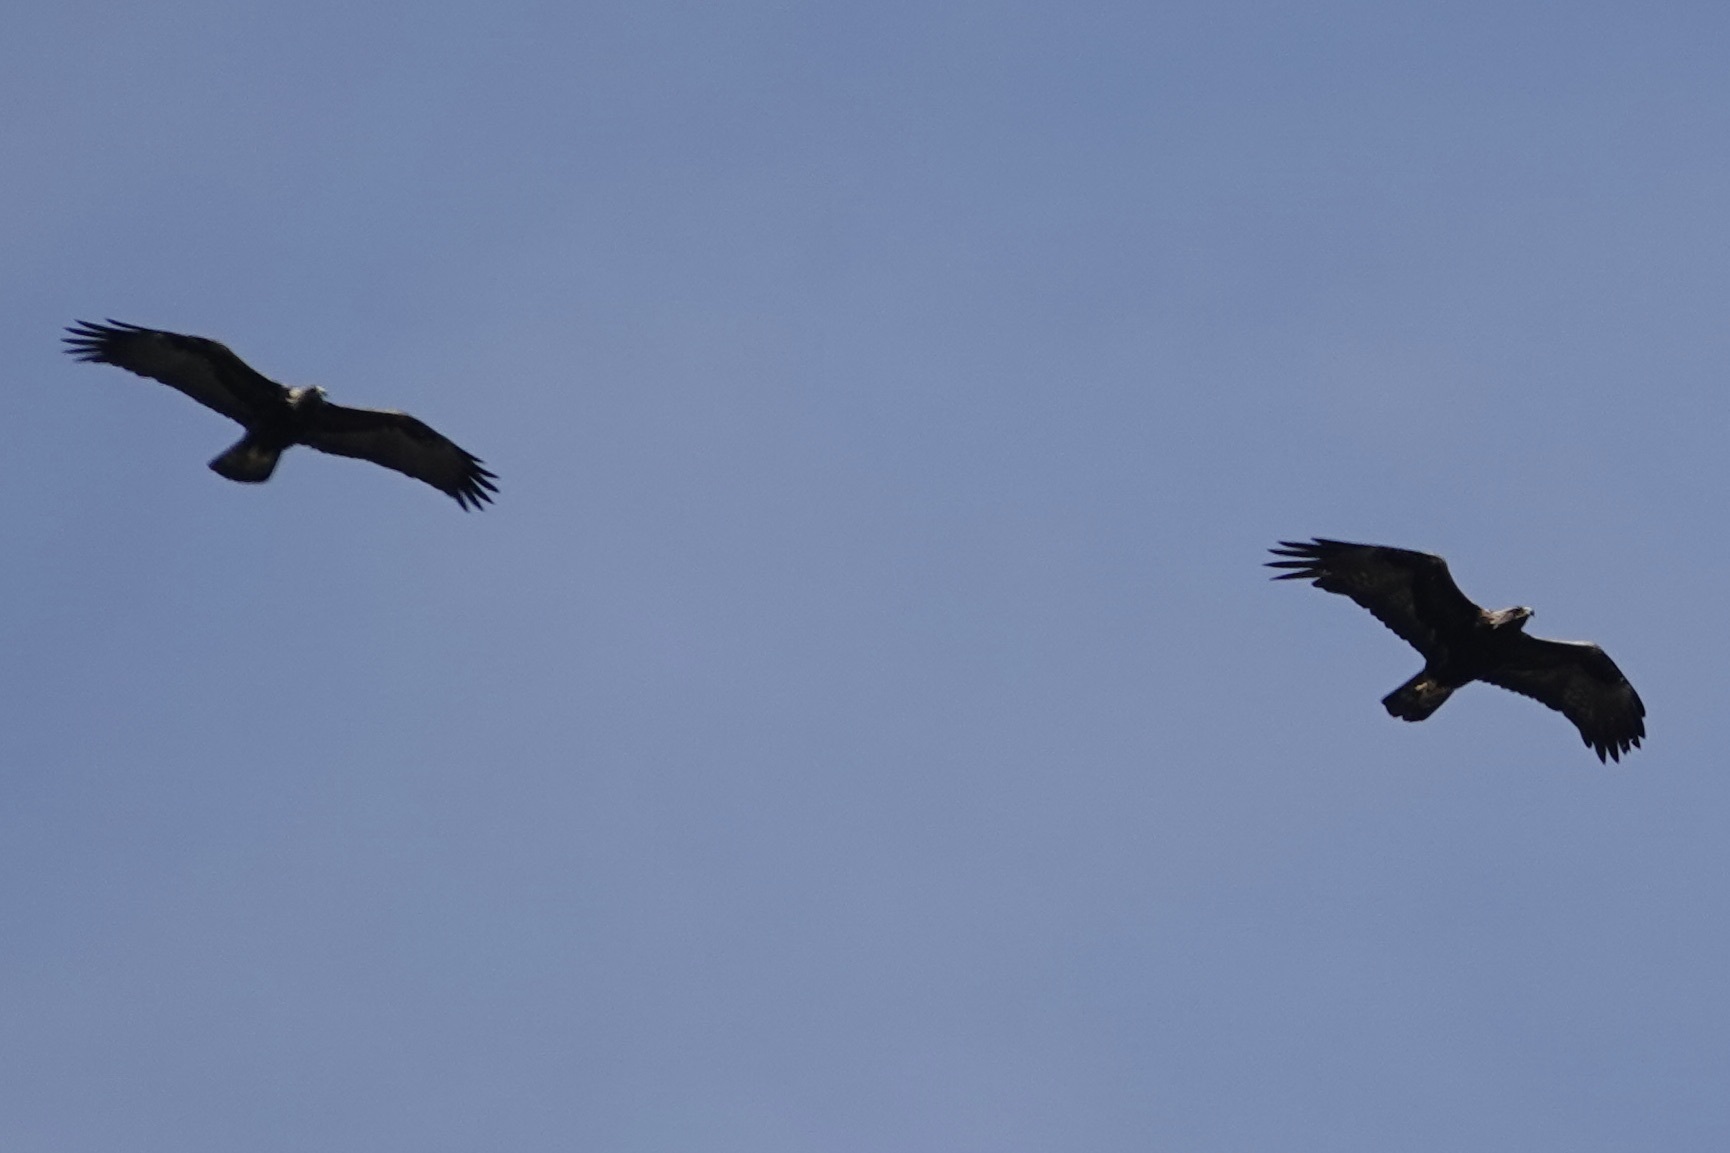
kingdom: Animalia
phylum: Chordata
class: Aves
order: Accipitriformes
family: Accipitridae
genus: Aquila
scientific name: Aquila chrysaetos
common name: Golden eagle
